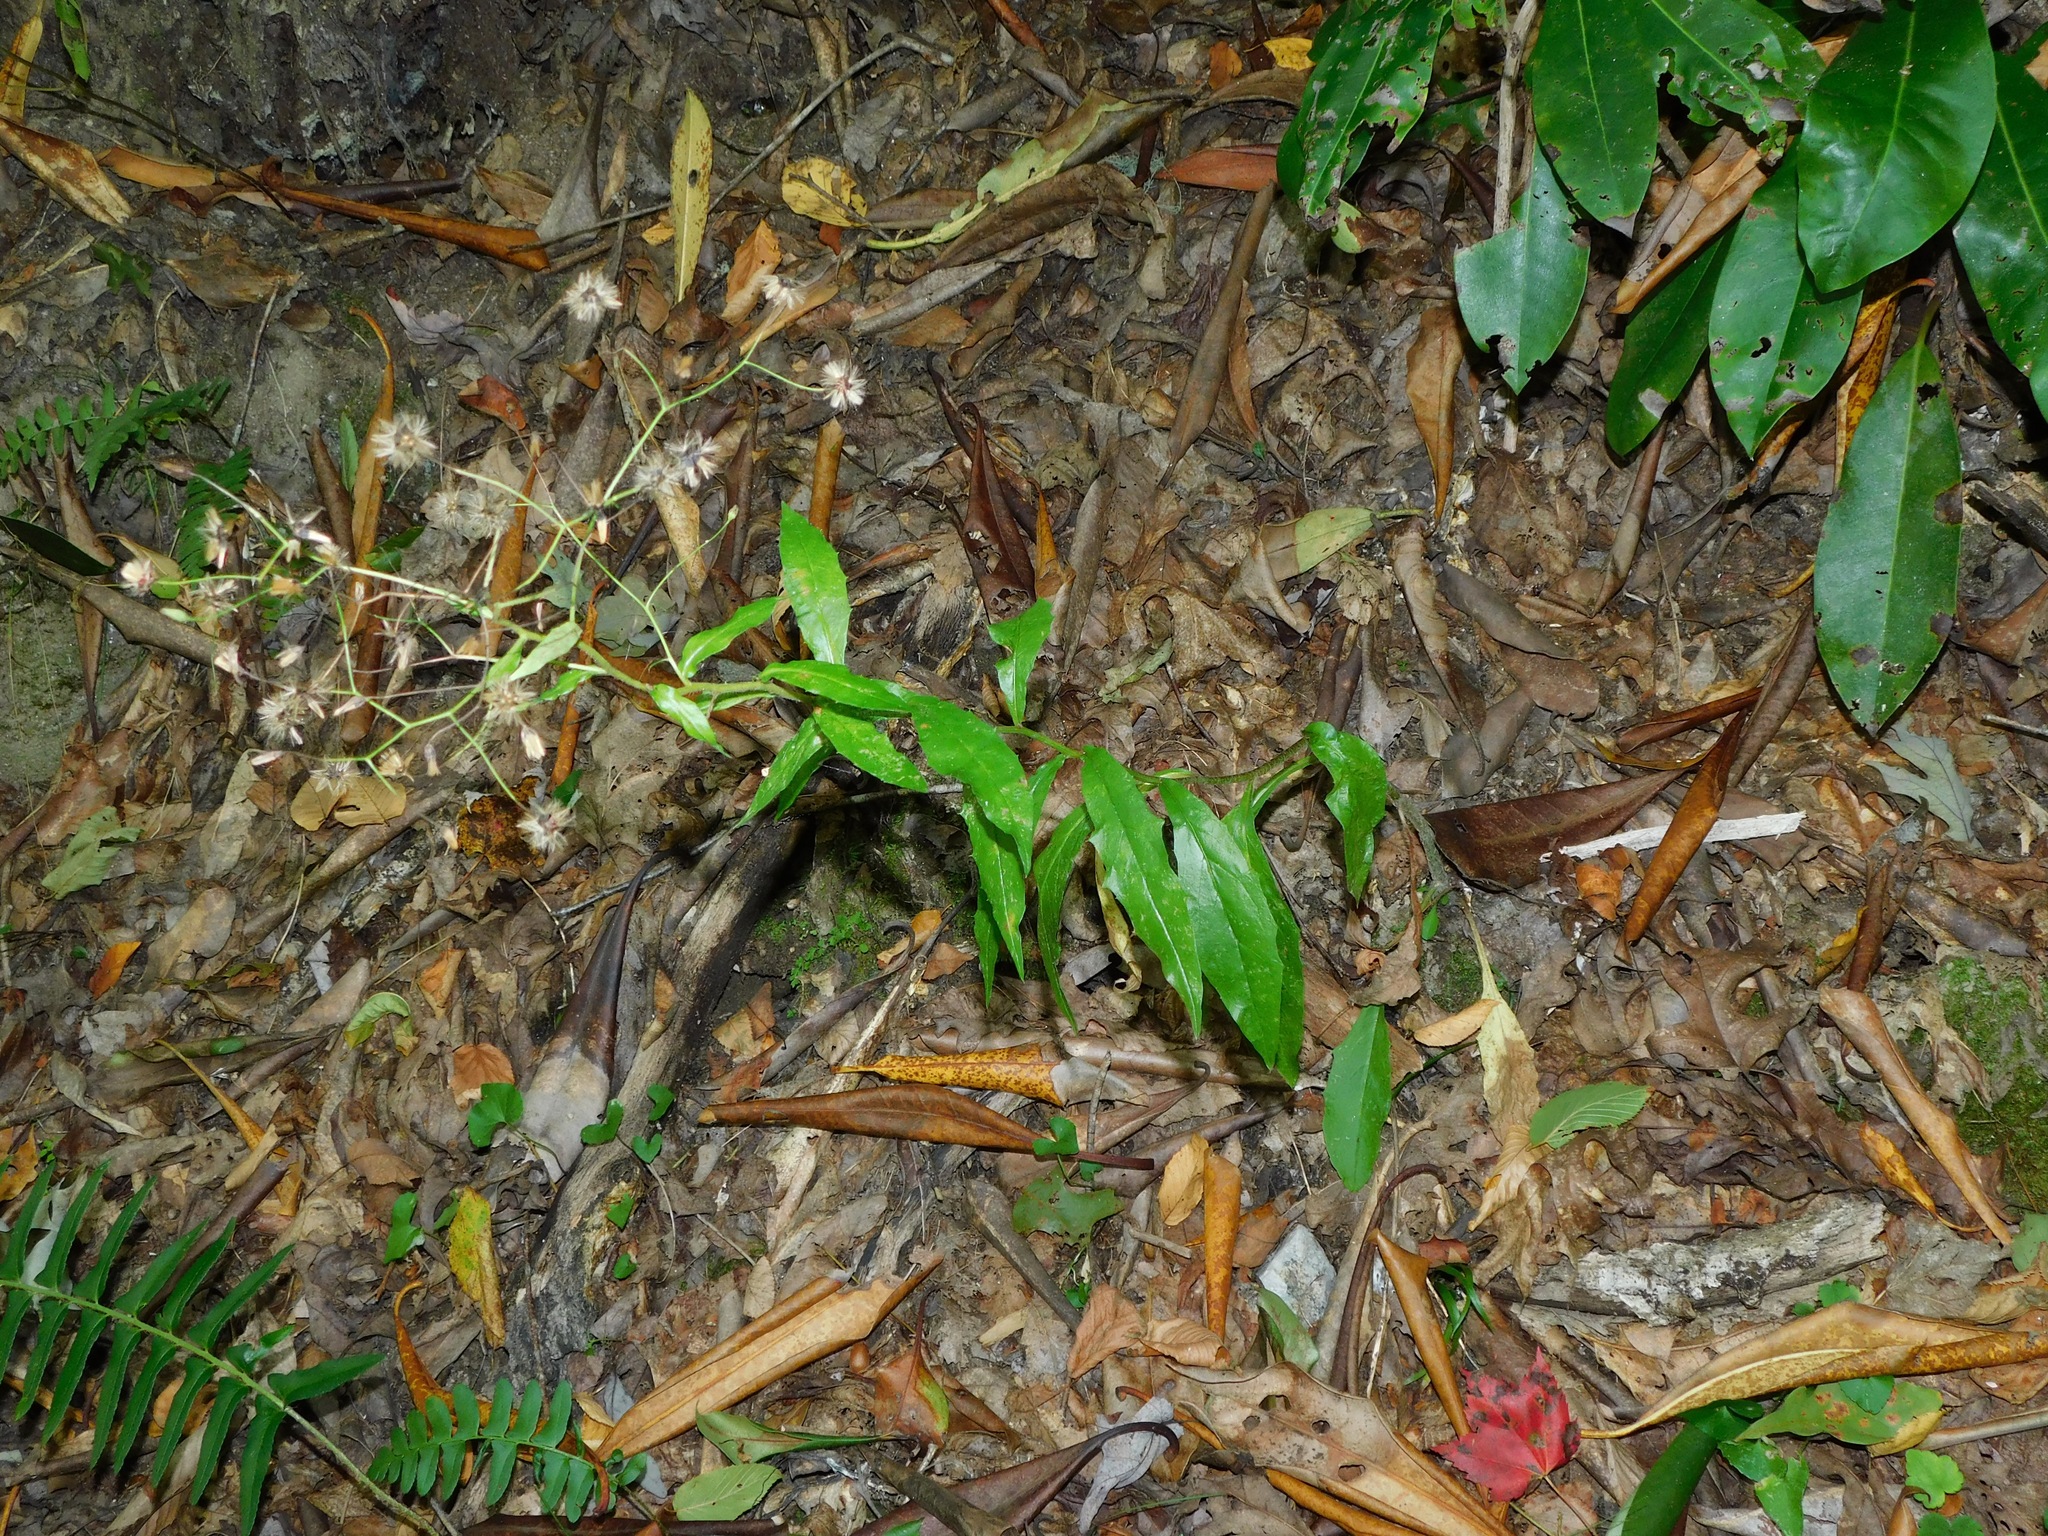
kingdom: Plantae
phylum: Tracheophyta
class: Magnoliopsida
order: Asterales
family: Asteraceae
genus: Hieracium
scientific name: Hieracium paniculatum
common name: Allegheny hawkweed
